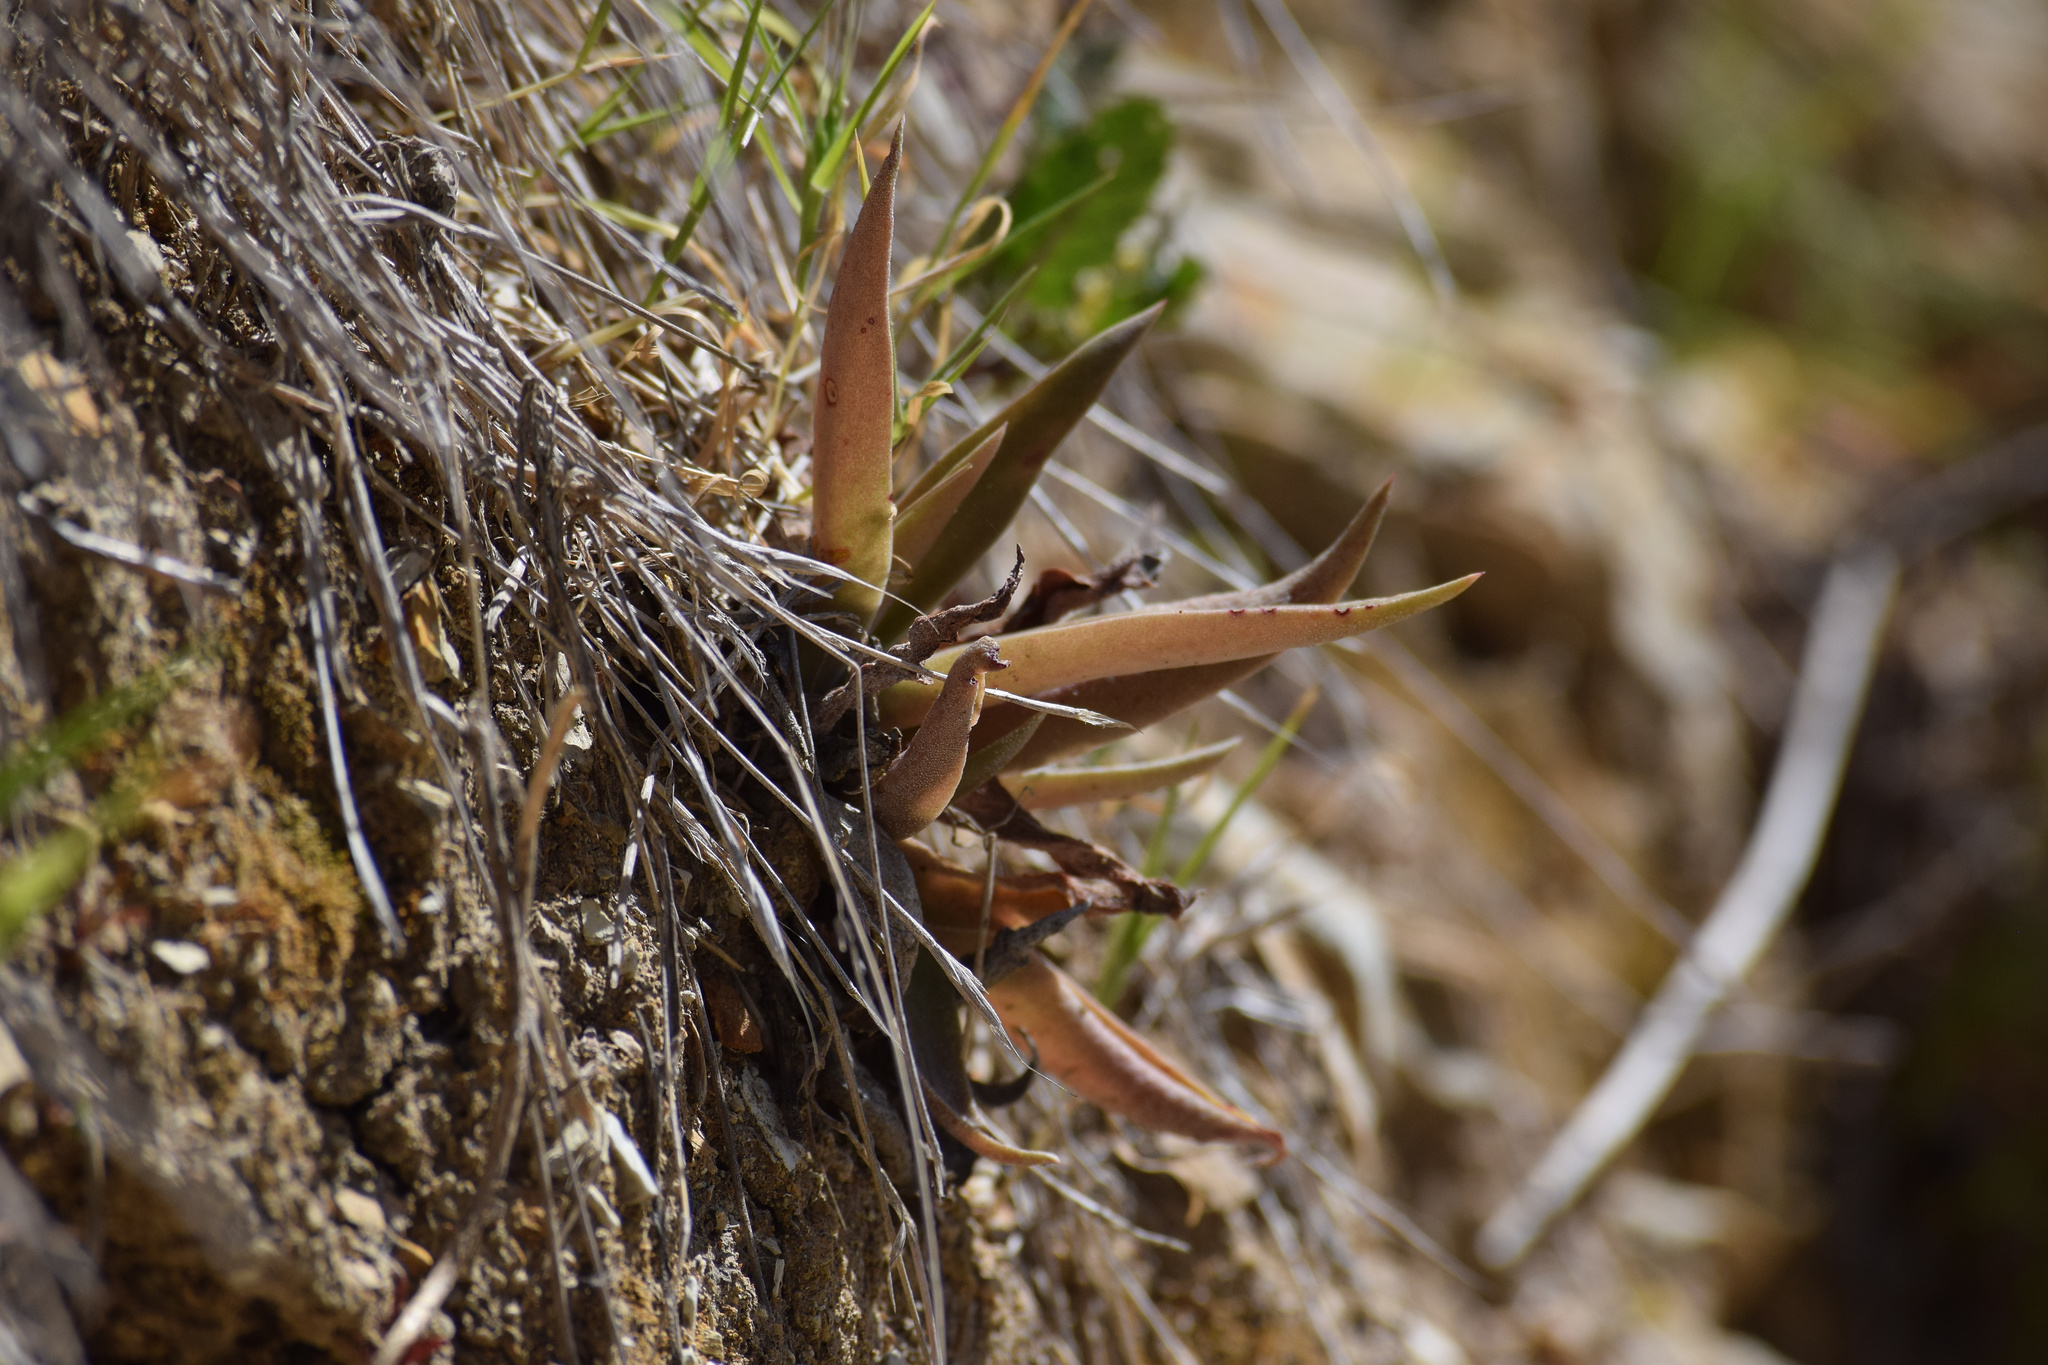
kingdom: Plantae
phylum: Tracheophyta
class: Magnoliopsida
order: Saxifragales
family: Crassulaceae
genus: Dudleya
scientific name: Dudleya lanceolata
